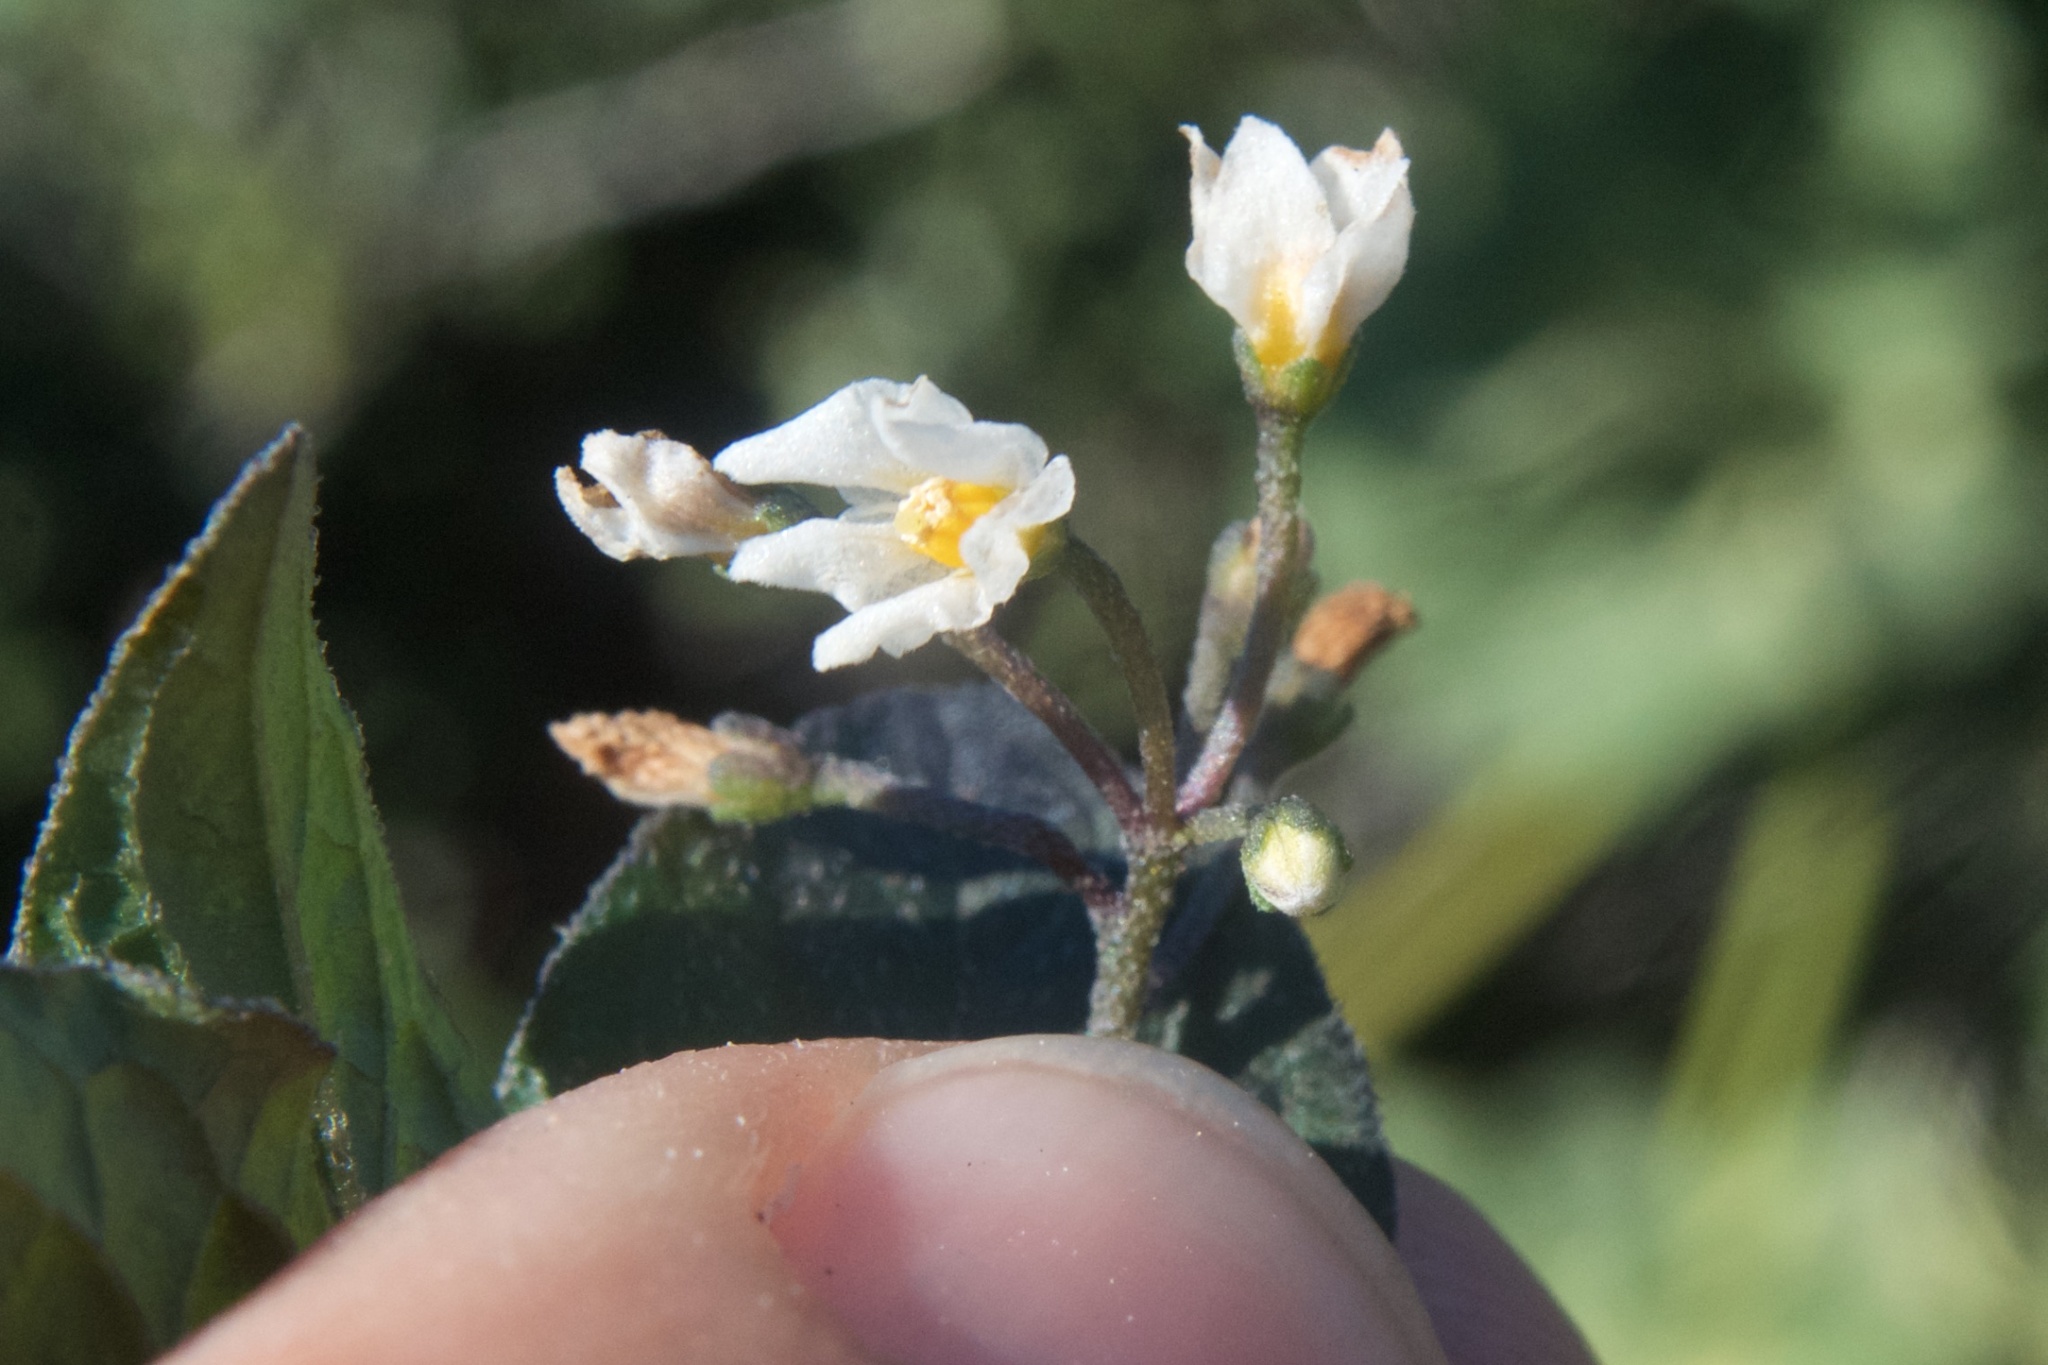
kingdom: Plantae
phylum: Tracheophyta
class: Magnoliopsida
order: Solanales
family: Solanaceae
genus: Solanum
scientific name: Solanum nigrum
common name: Black nightshade
